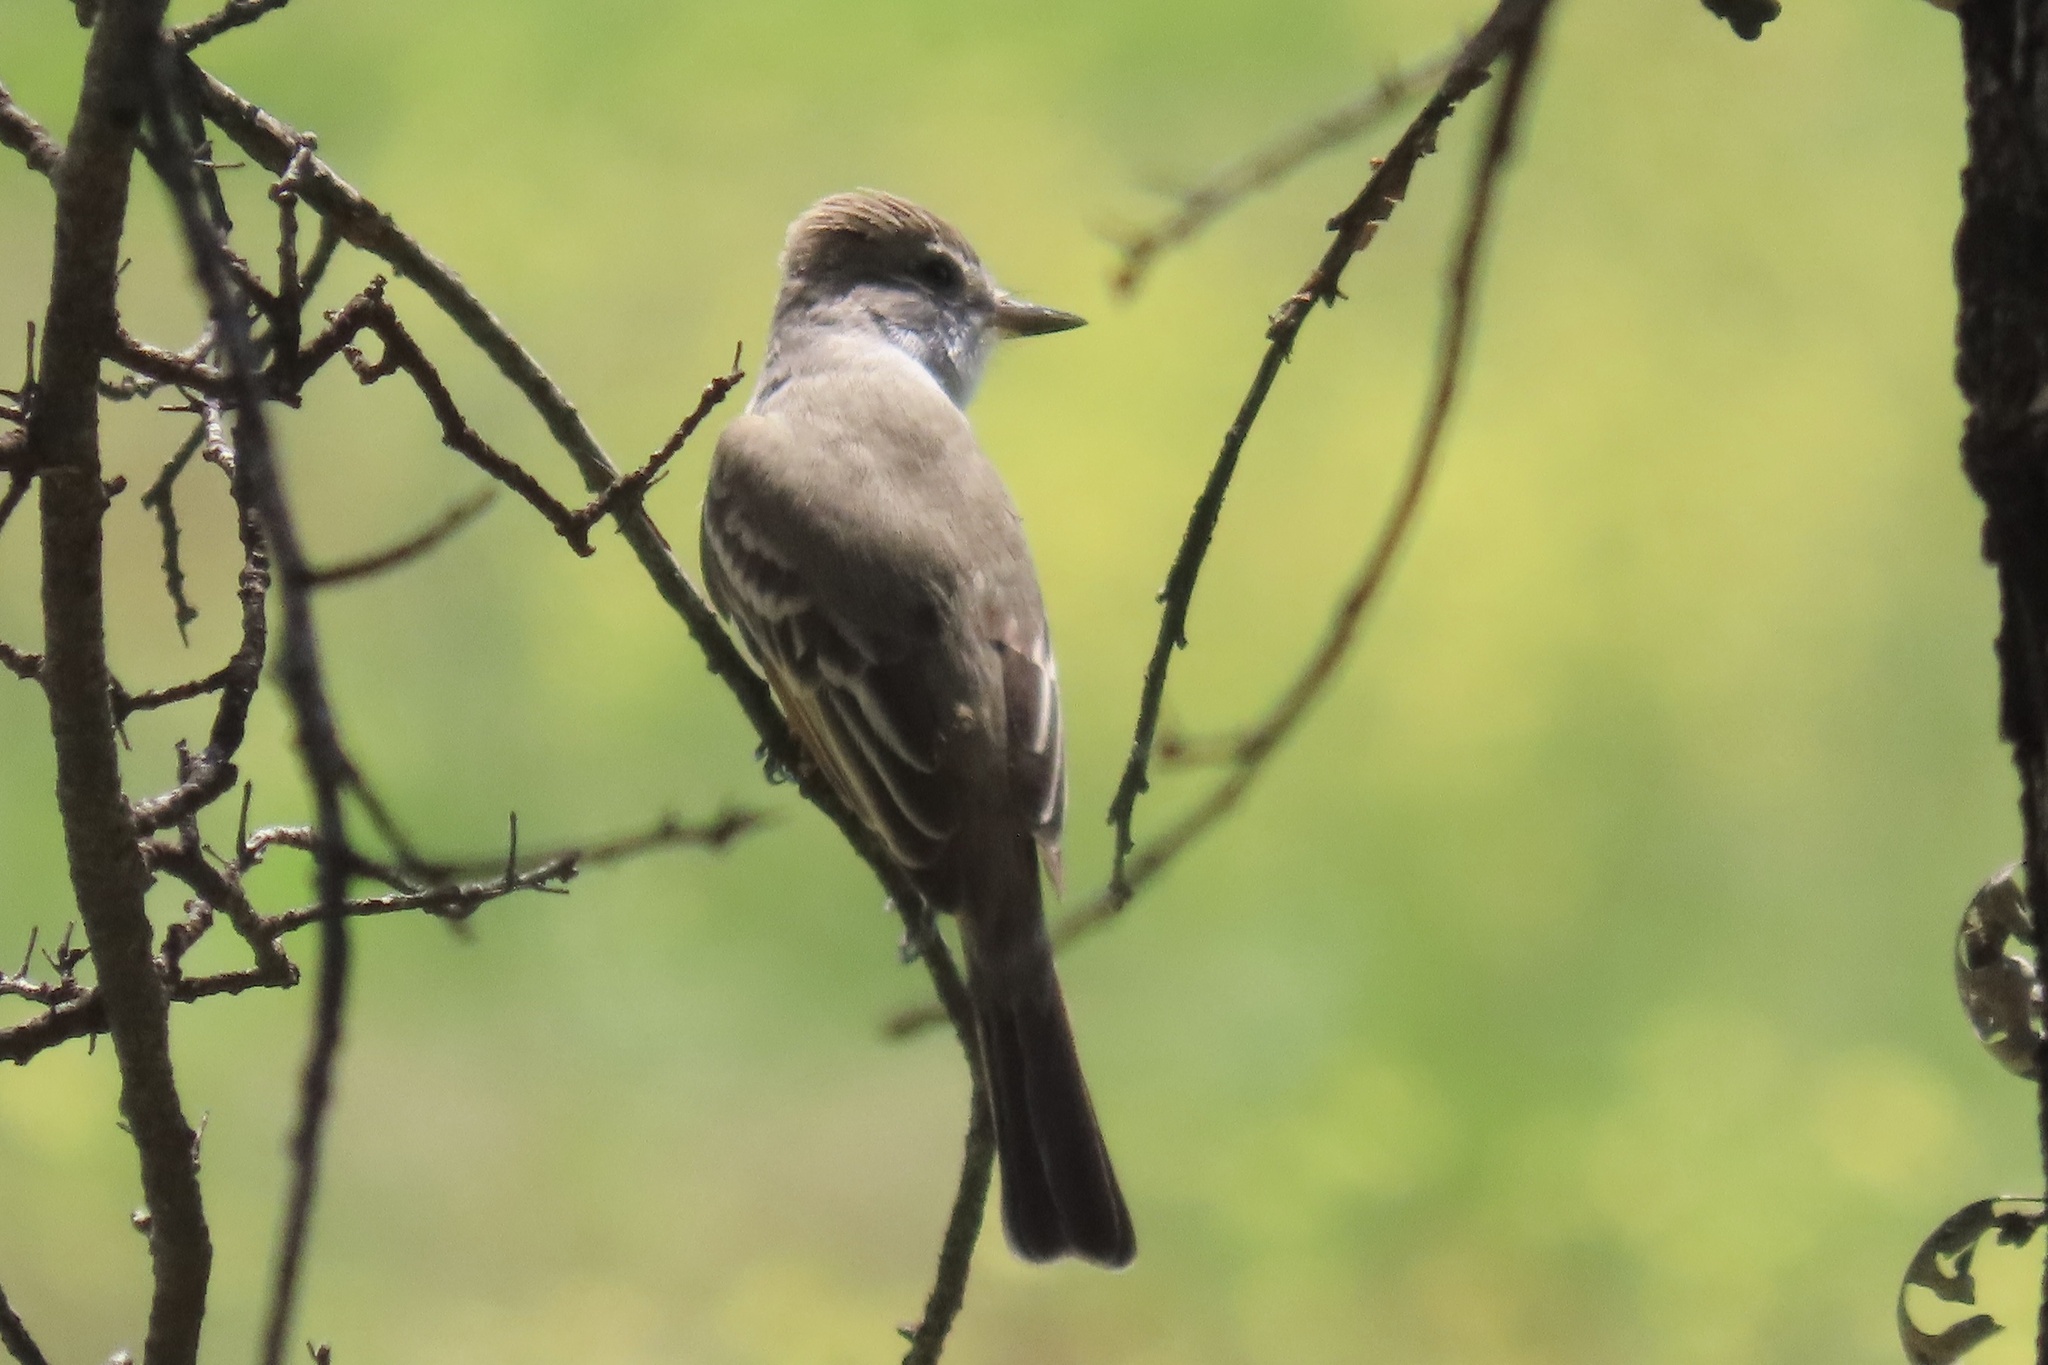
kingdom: Animalia
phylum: Chordata
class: Aves
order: Passeriformes
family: Tyrannidae
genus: Myiarchus
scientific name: Myiarchus cinerascens
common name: Ash-throated flycatcher
